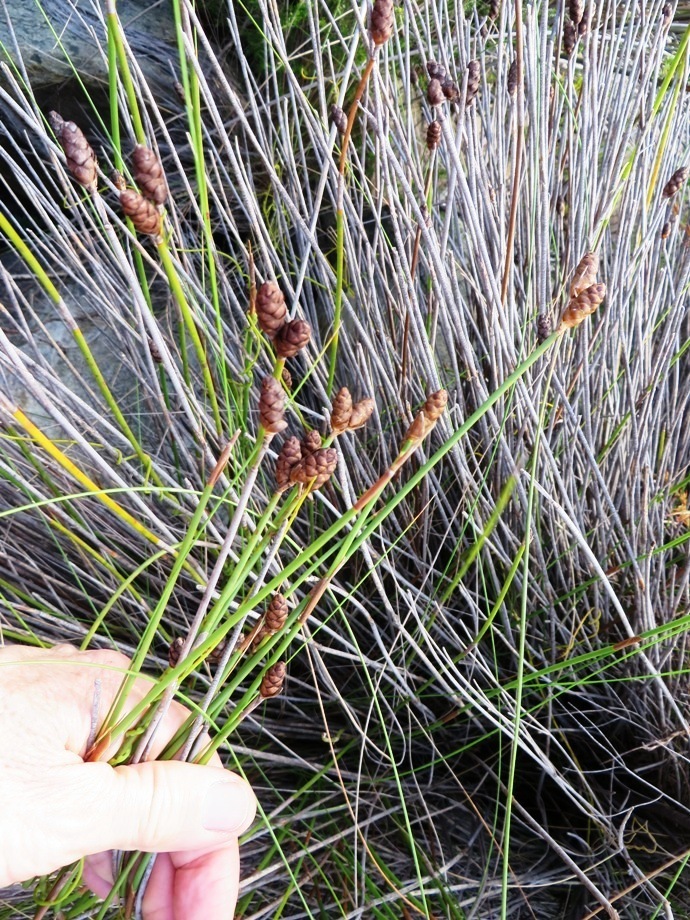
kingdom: Plantae
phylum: Tracheophyta
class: Liliopsida
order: Poales
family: Restionaceae
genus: Nevillea
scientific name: Nevillea obtusissimus
